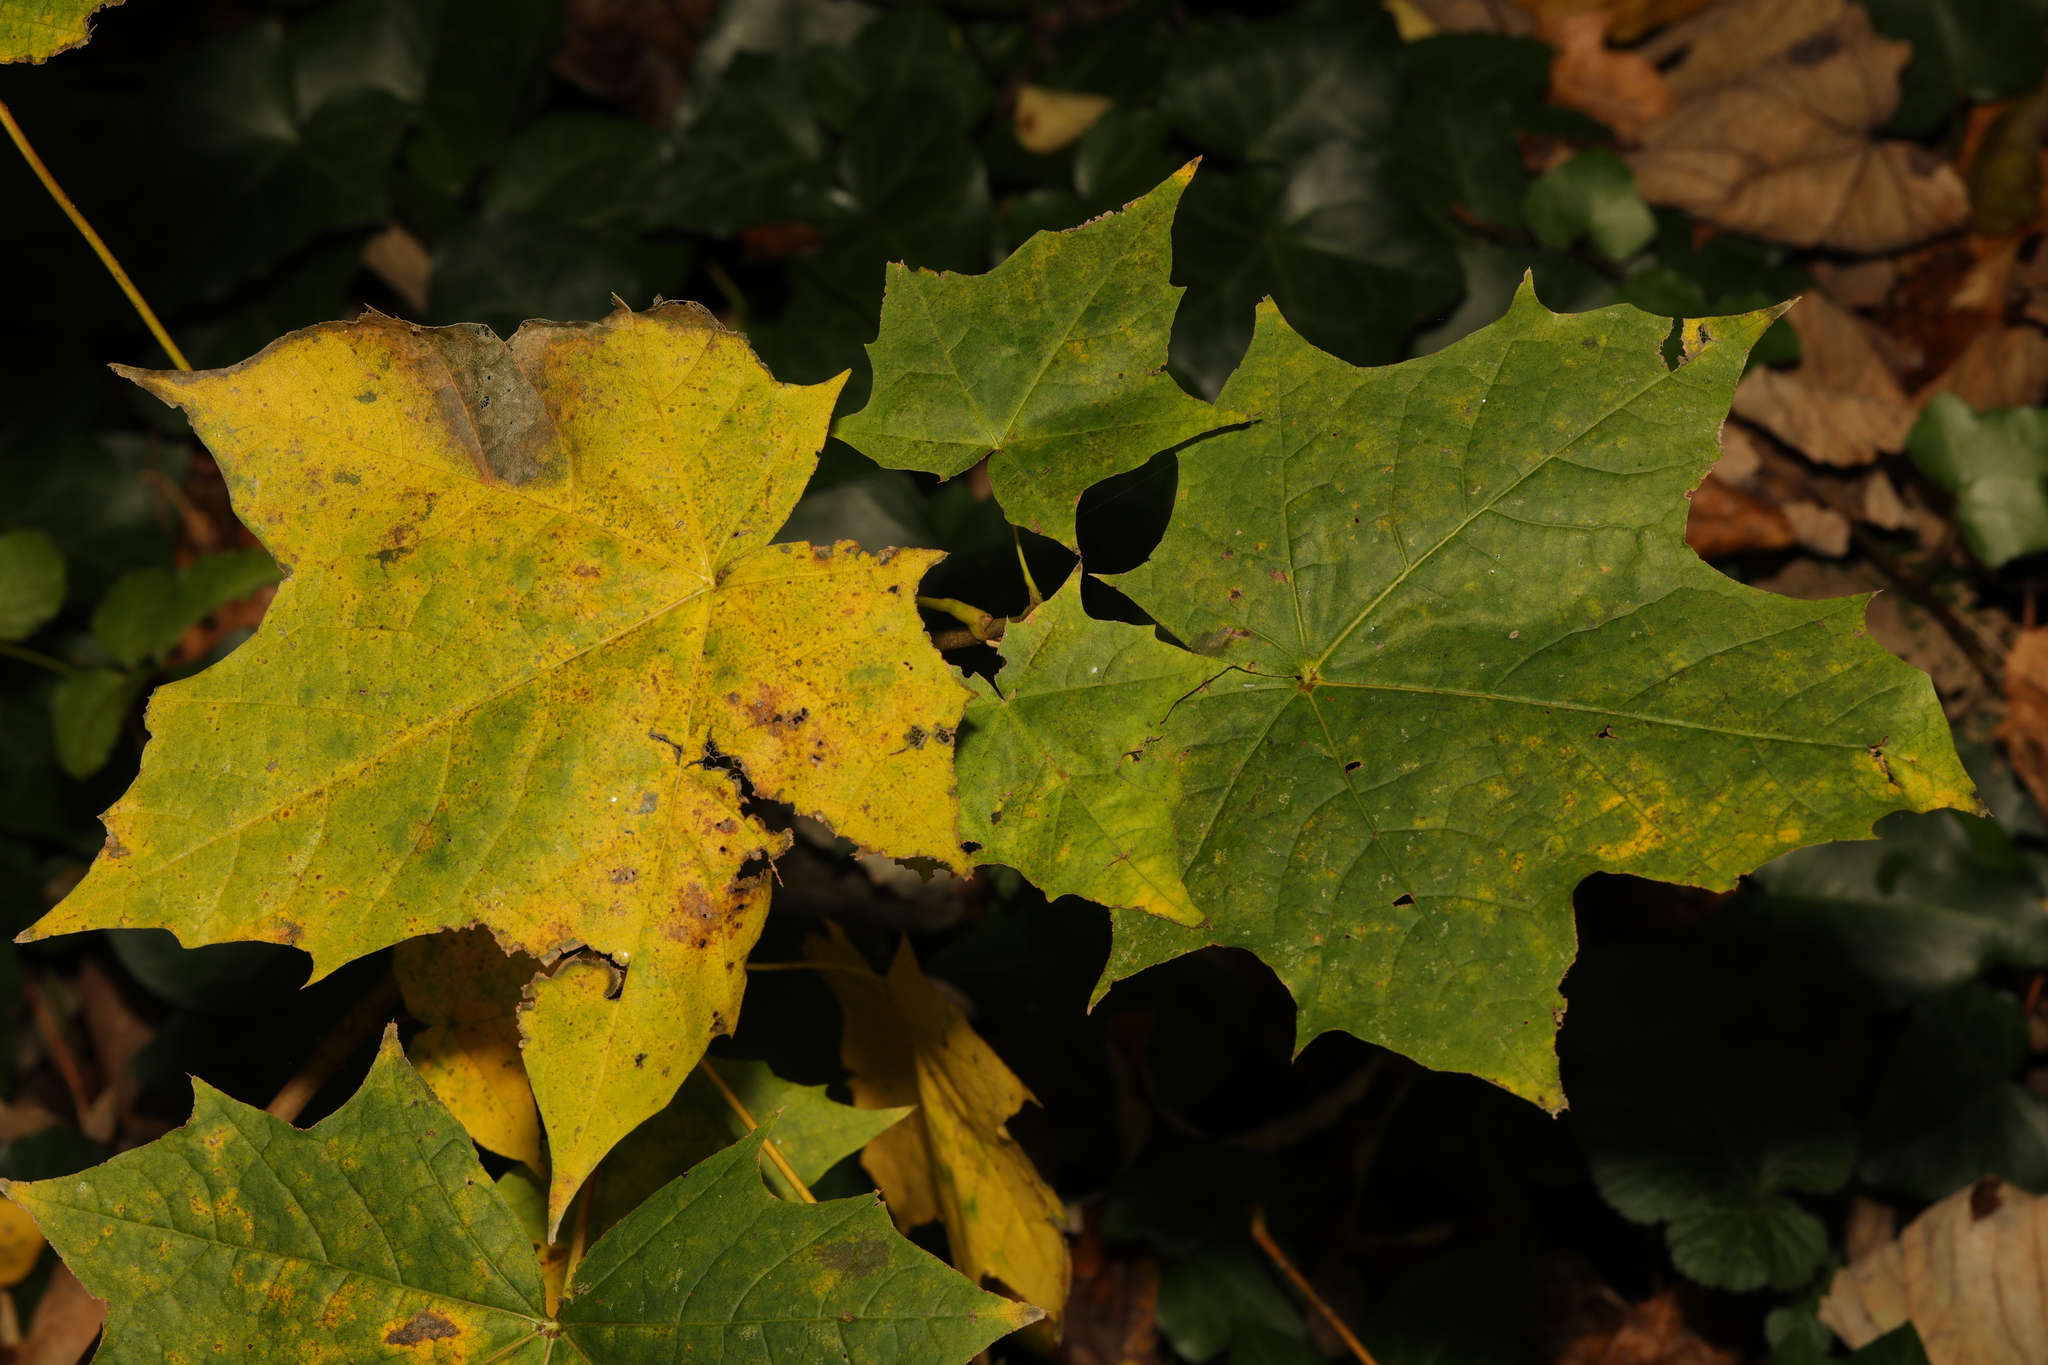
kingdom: Plantae
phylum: Tracheophyta
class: Magnoliopsida
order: Sapindales
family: Sapindaceae
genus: Acer
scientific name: Acer platanoides
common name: Norway maple
